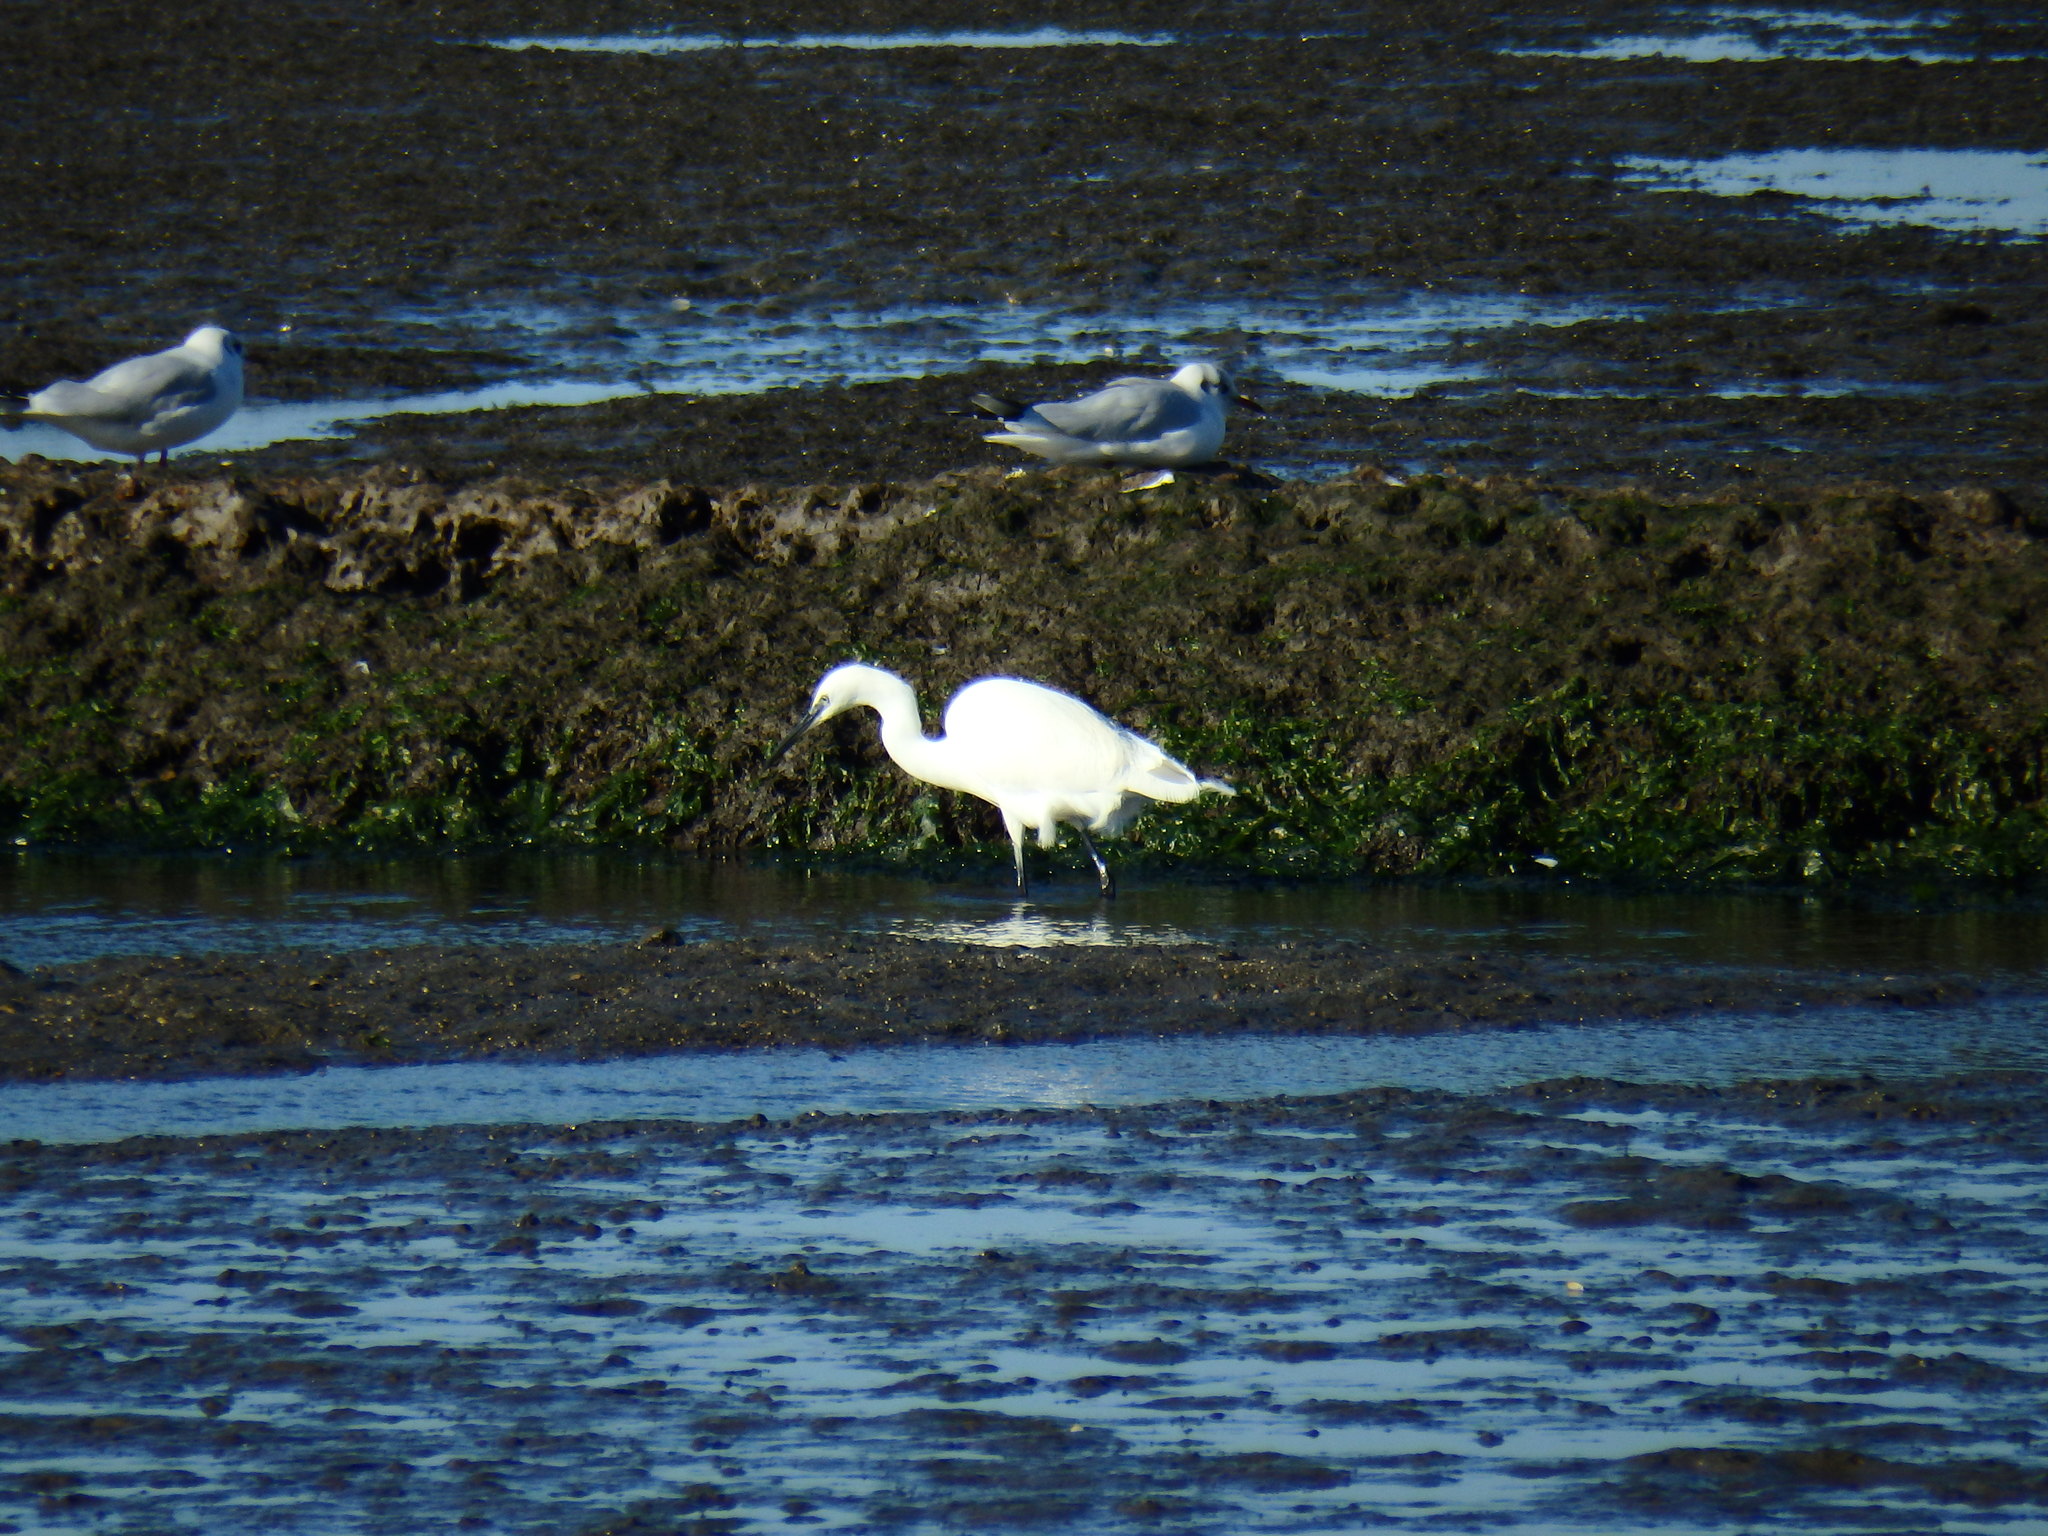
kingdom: Animalia
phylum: Chordata
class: Aves
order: Pelecaniformes
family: Ardeidae
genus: Egretta
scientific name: Egretta garzetta
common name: Little egret
